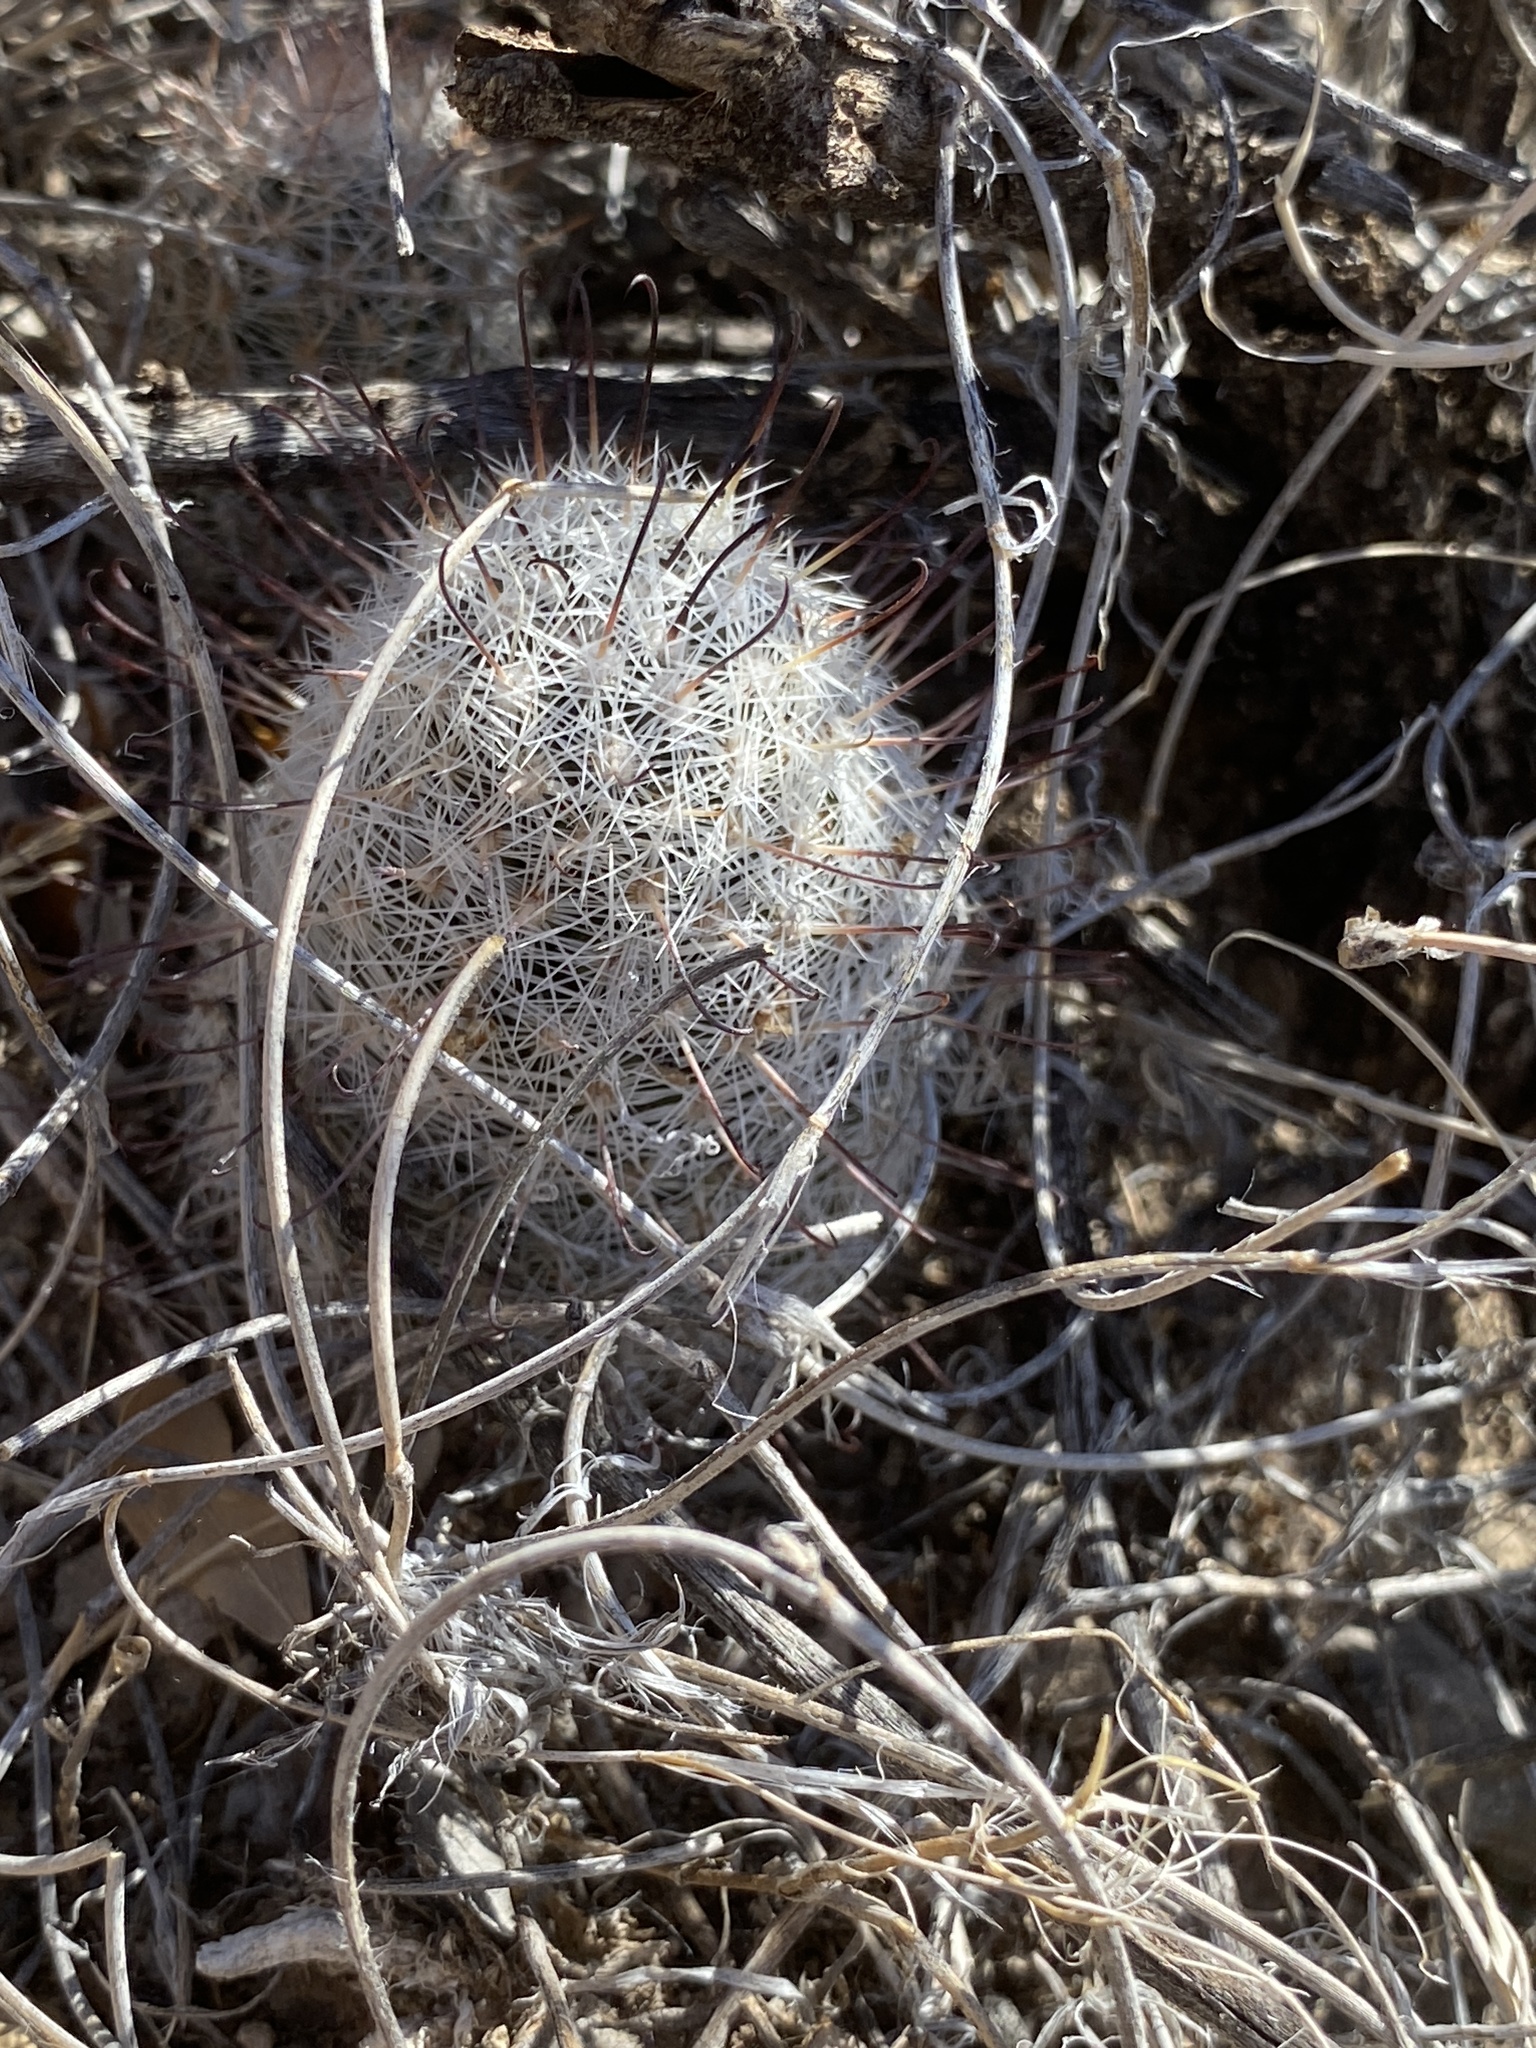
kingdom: Plantae
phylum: Tracheophyta
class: Magnoliopsida
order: Caryophyllales
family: Cactaceae
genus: Cochemiea
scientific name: Cochemiea grahamii
